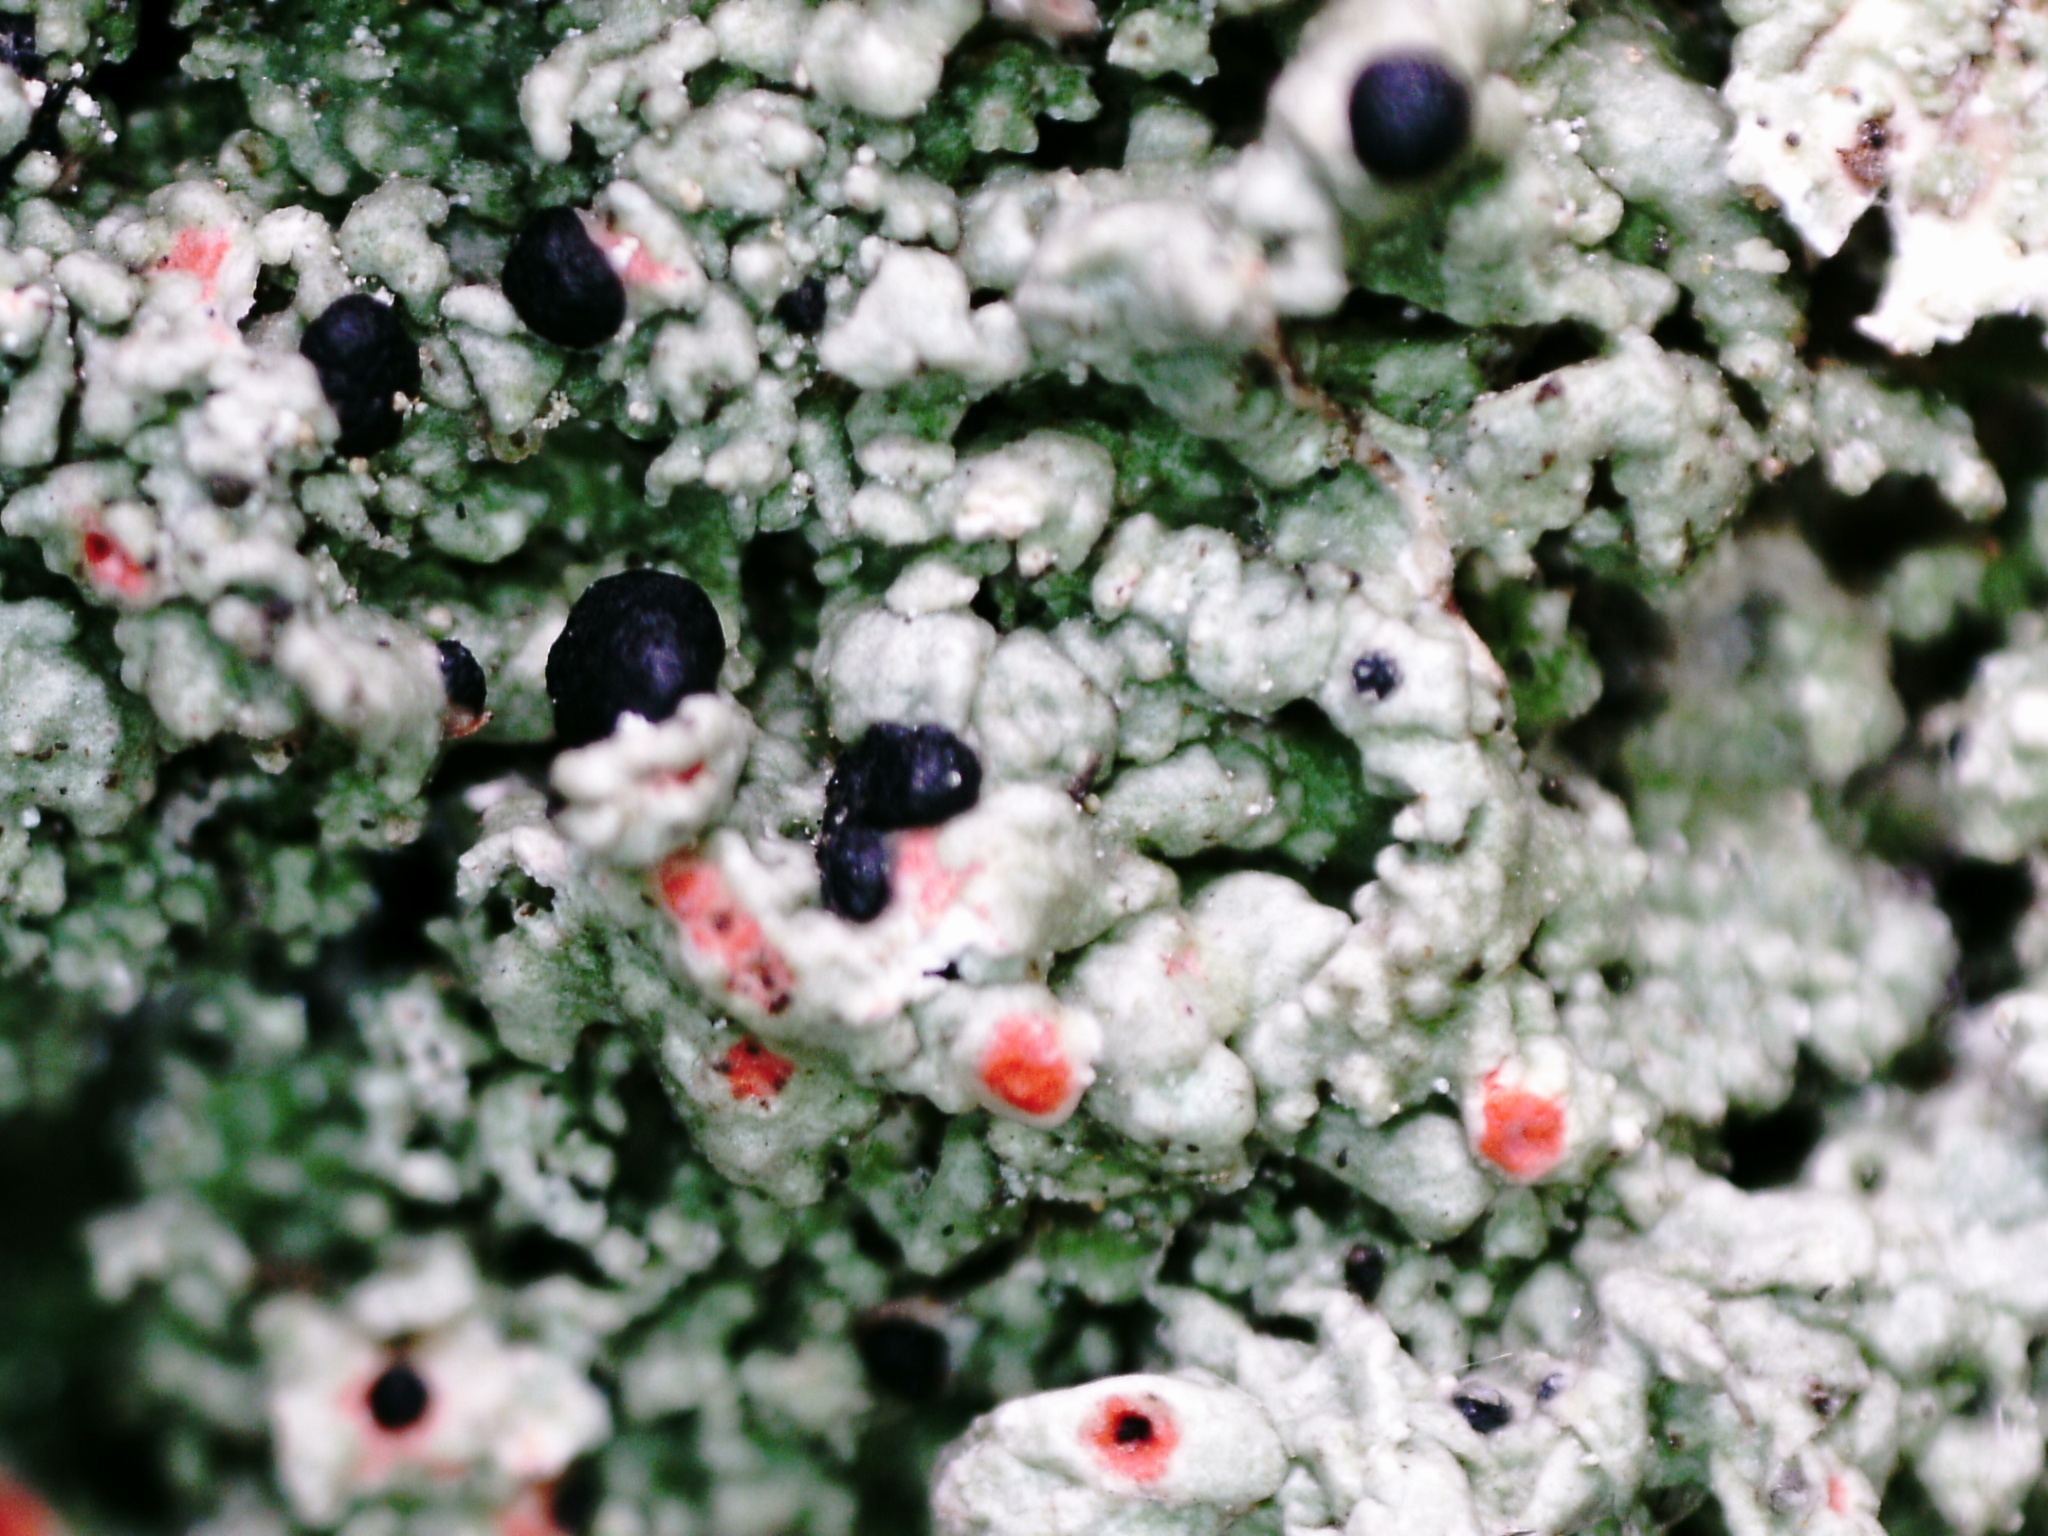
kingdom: Fungi
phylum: Ascomycota
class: Lecanoromycetes
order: Lecanorales
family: Tephromelataceae
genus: Mycoblastus
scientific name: Mycoblastus sanguinarius
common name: Bloody-heart lichen
